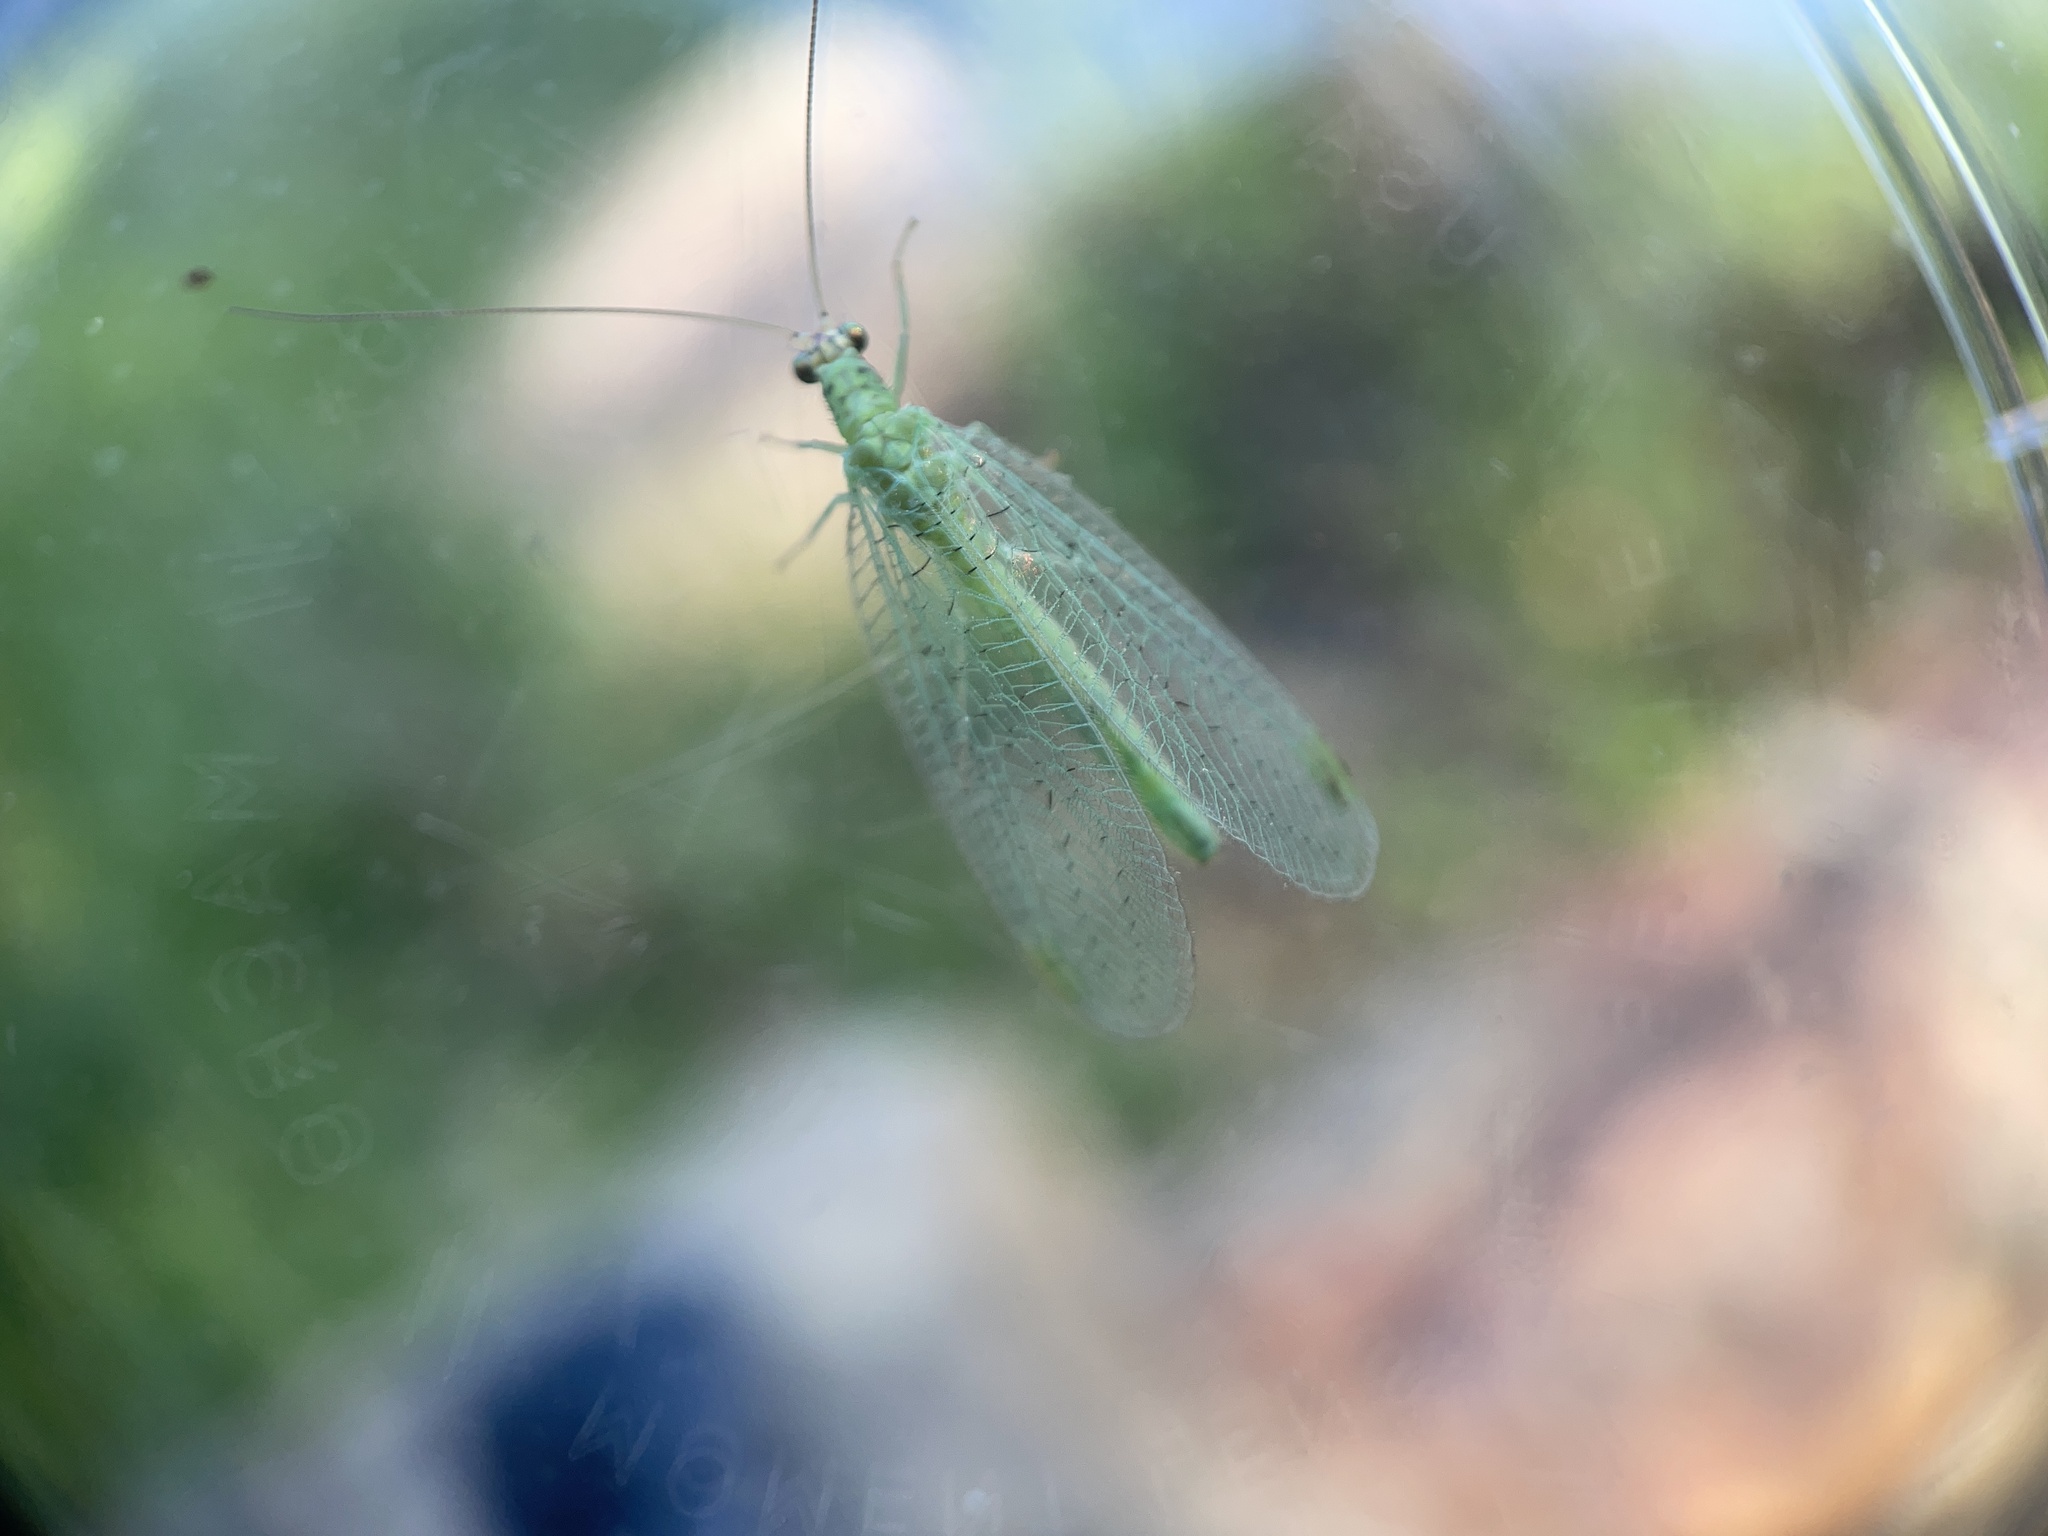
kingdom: Animalia
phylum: Arthropoda
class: Insecta
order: Neuroptera
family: Chrysopidae
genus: Chrysopa
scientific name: Chrysopa oculata
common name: Golden-eyed lacewing
